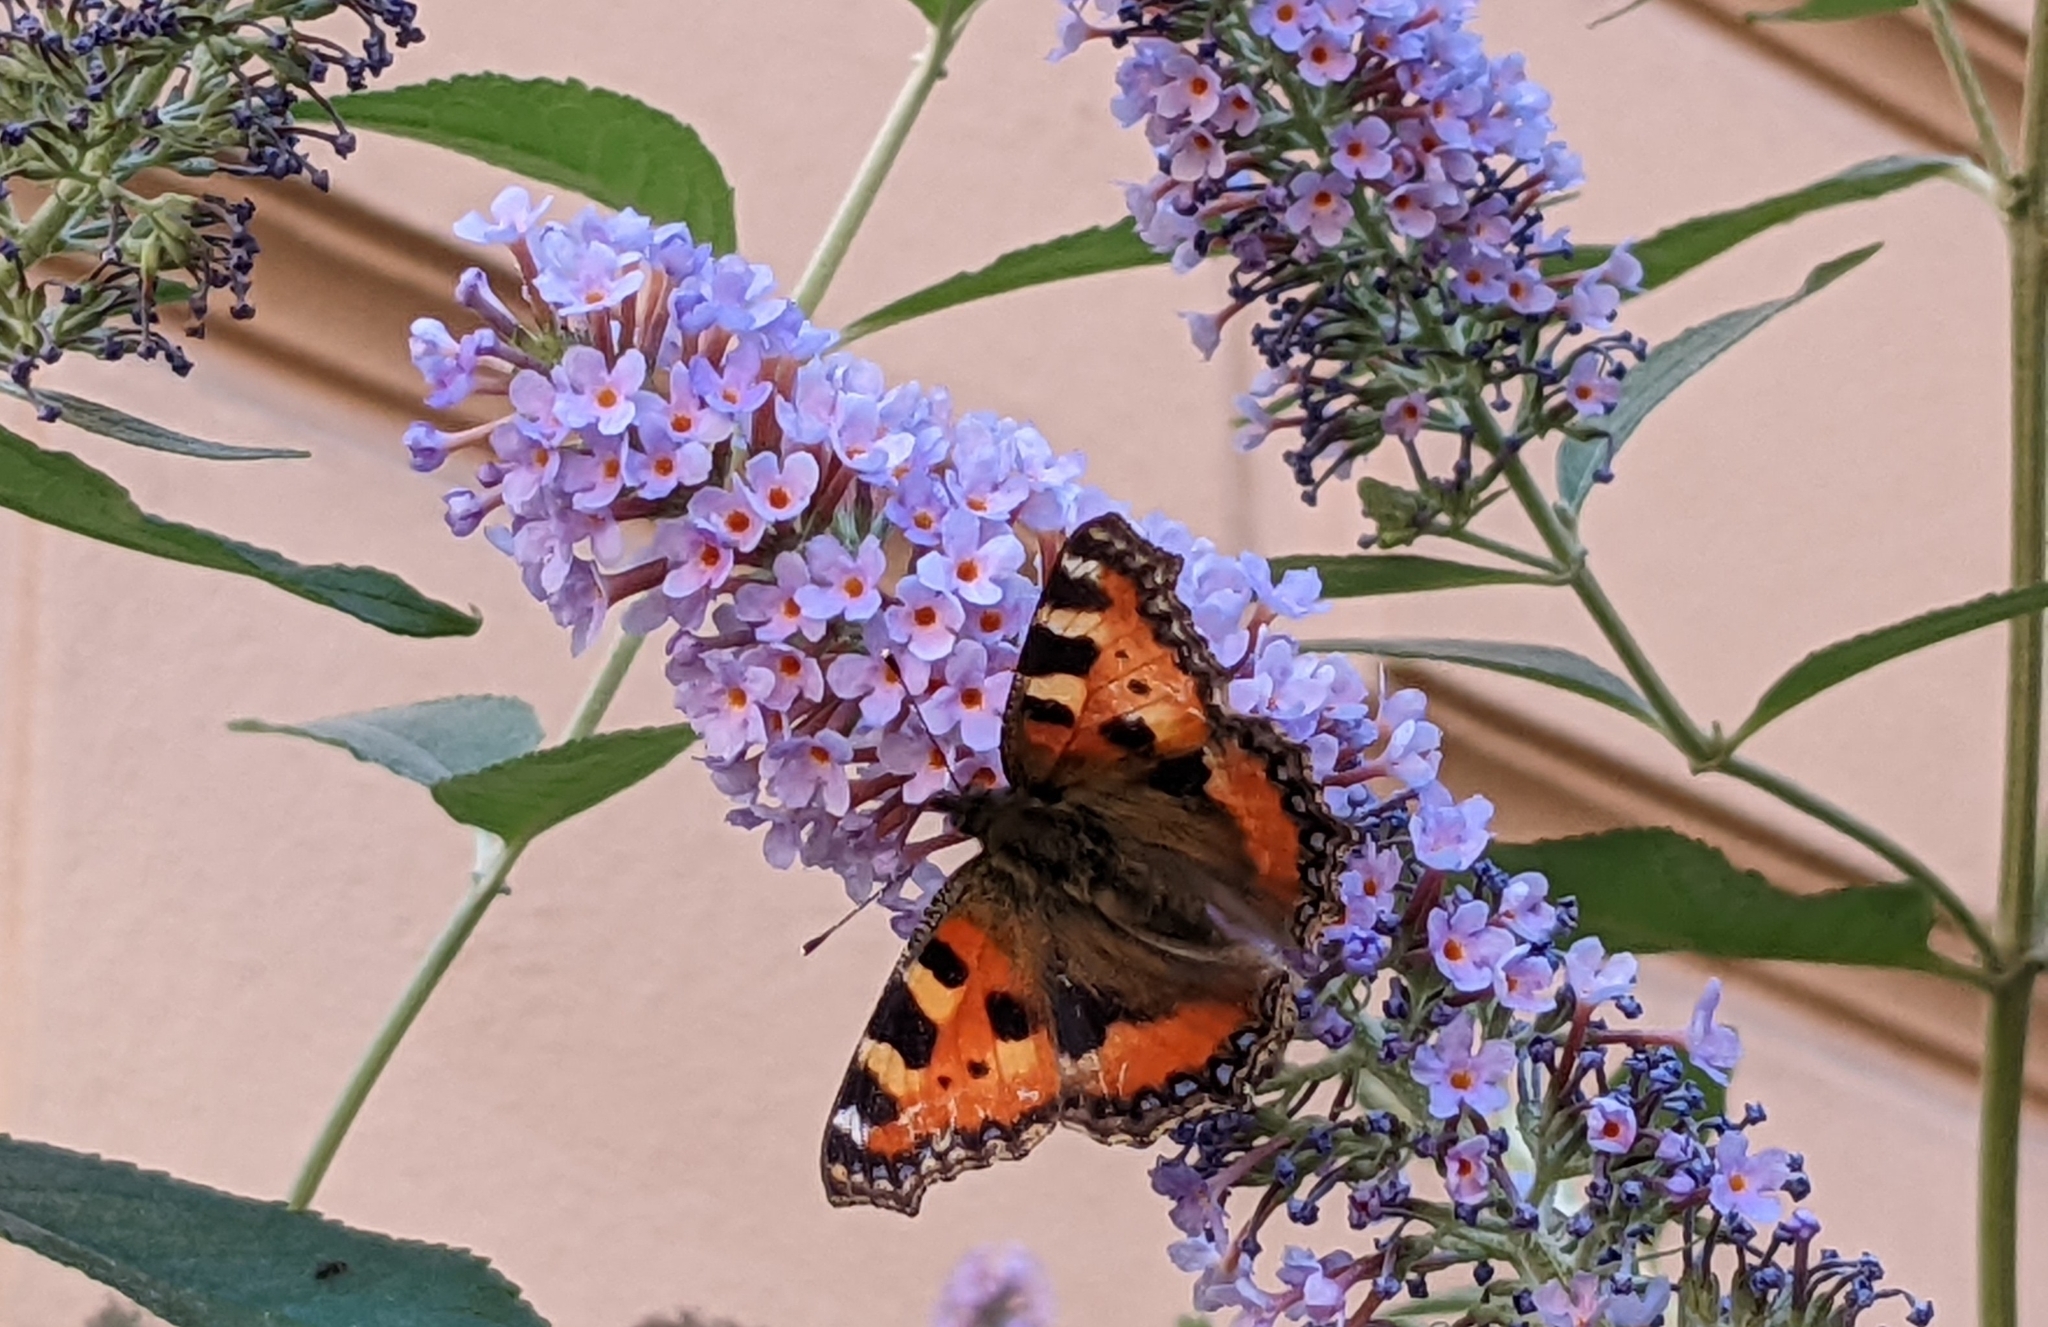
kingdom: Animalia
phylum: Arthropoda
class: Insecta
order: Lepidoptera
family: Nymphalidae
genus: Aglais
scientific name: Aglais urticae
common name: Small tortoiseshell
